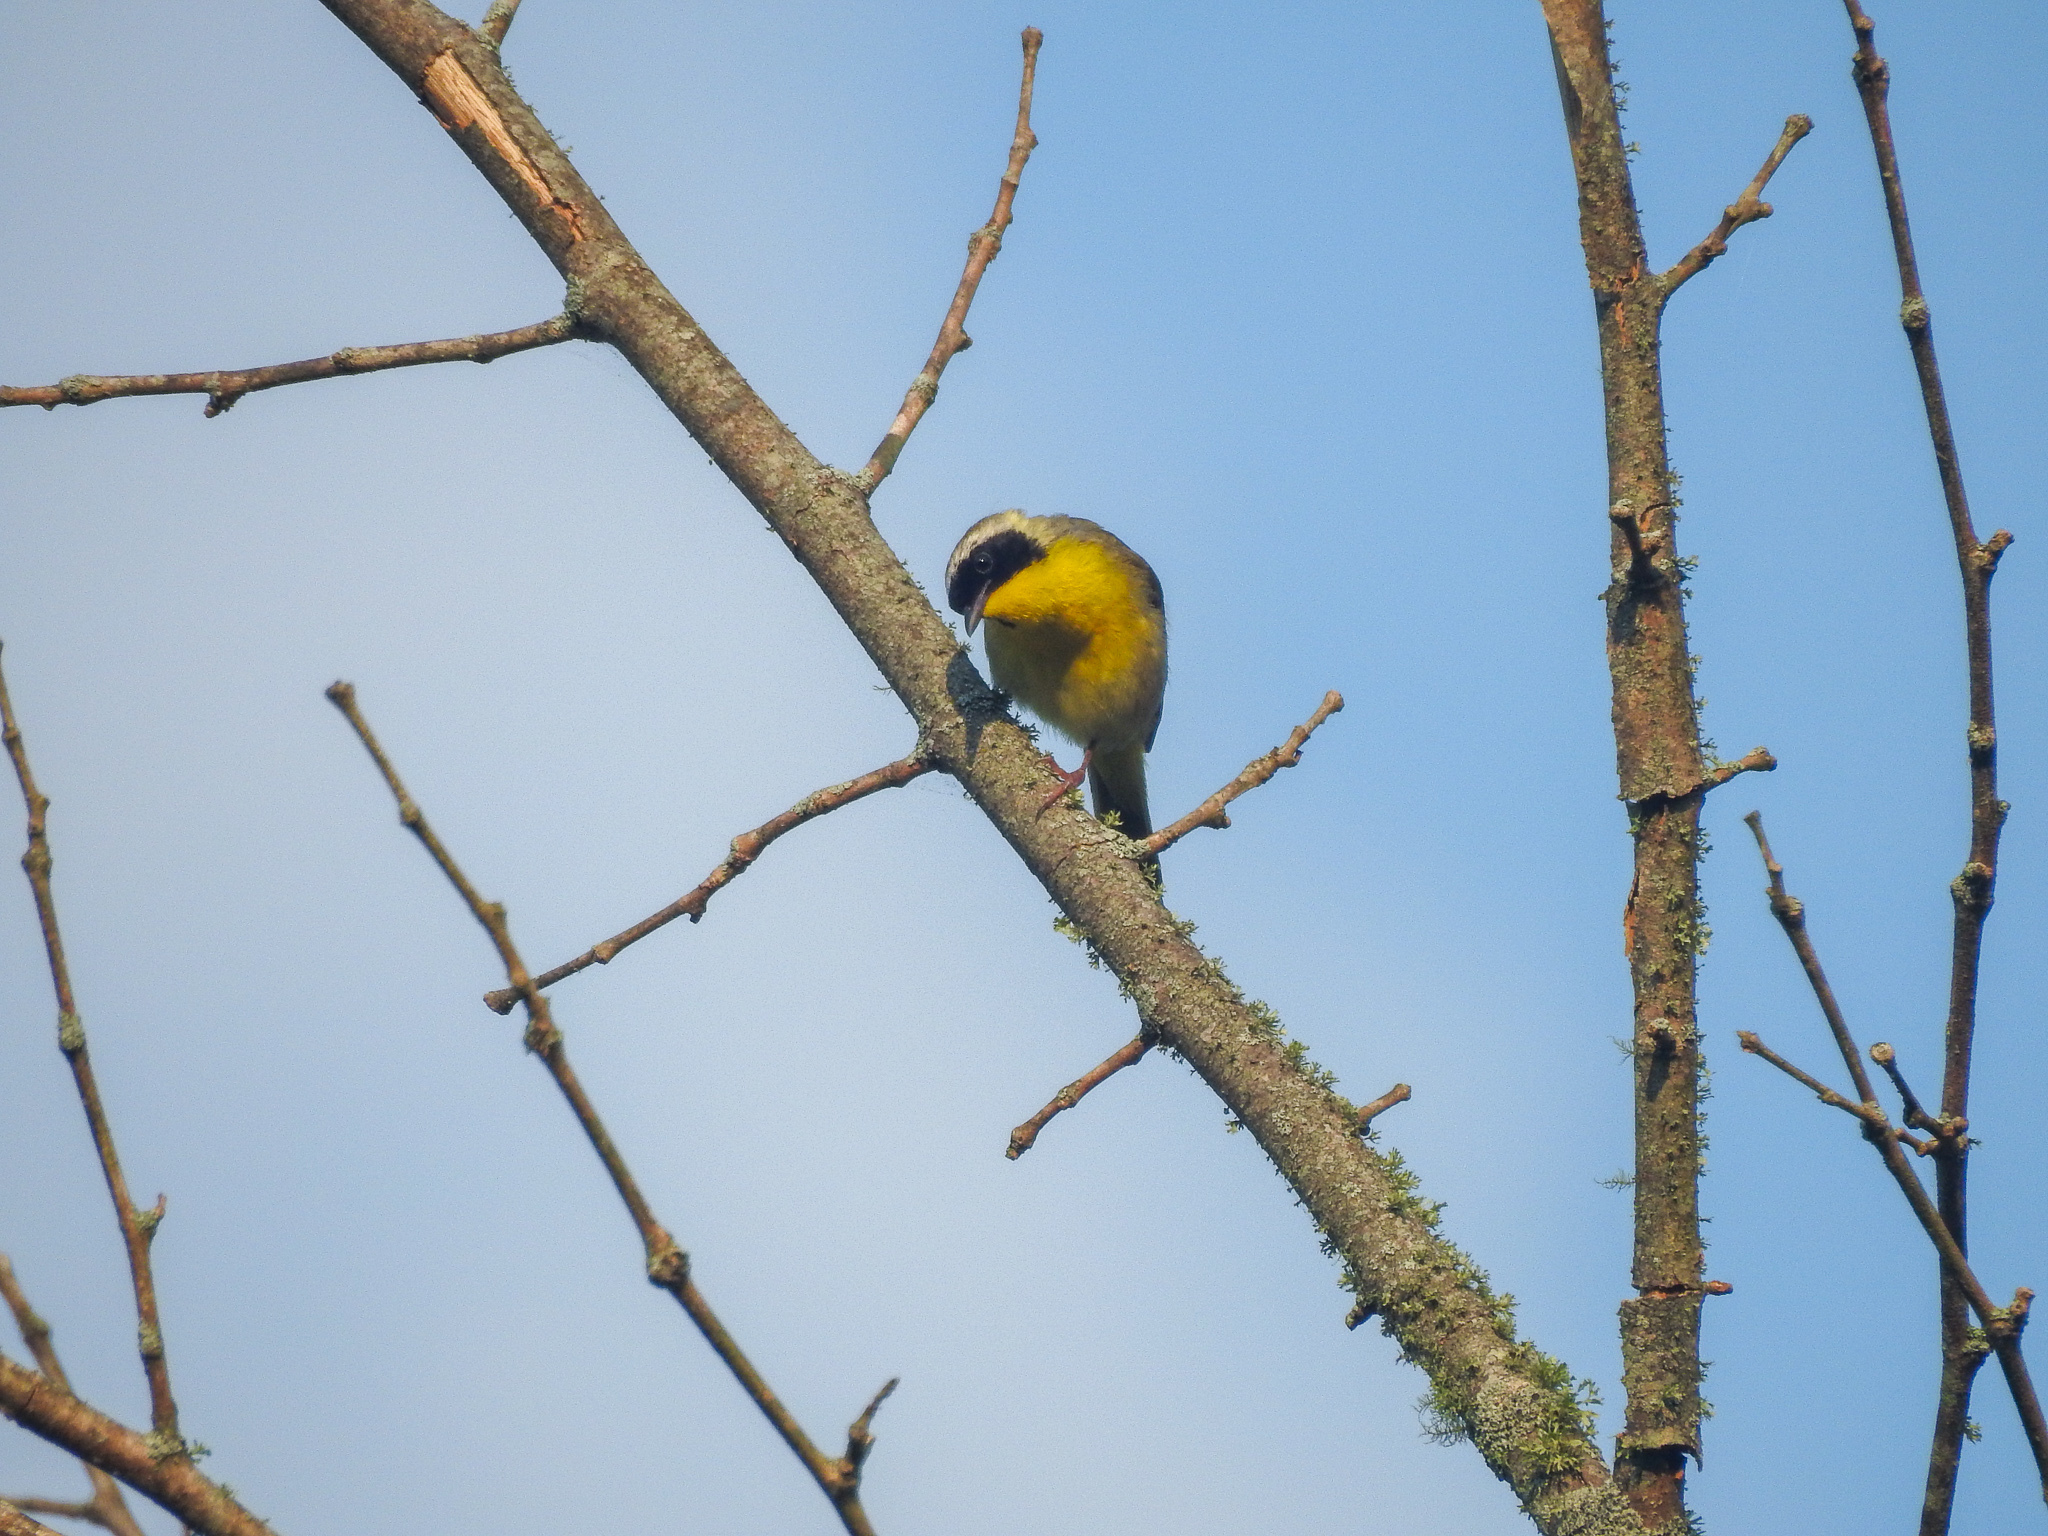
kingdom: Animalia
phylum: Chordata
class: Aves
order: Passeriformes
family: Parulidae
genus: Geothlypis
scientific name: Geothlypis trichas
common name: Common yellowthroat
